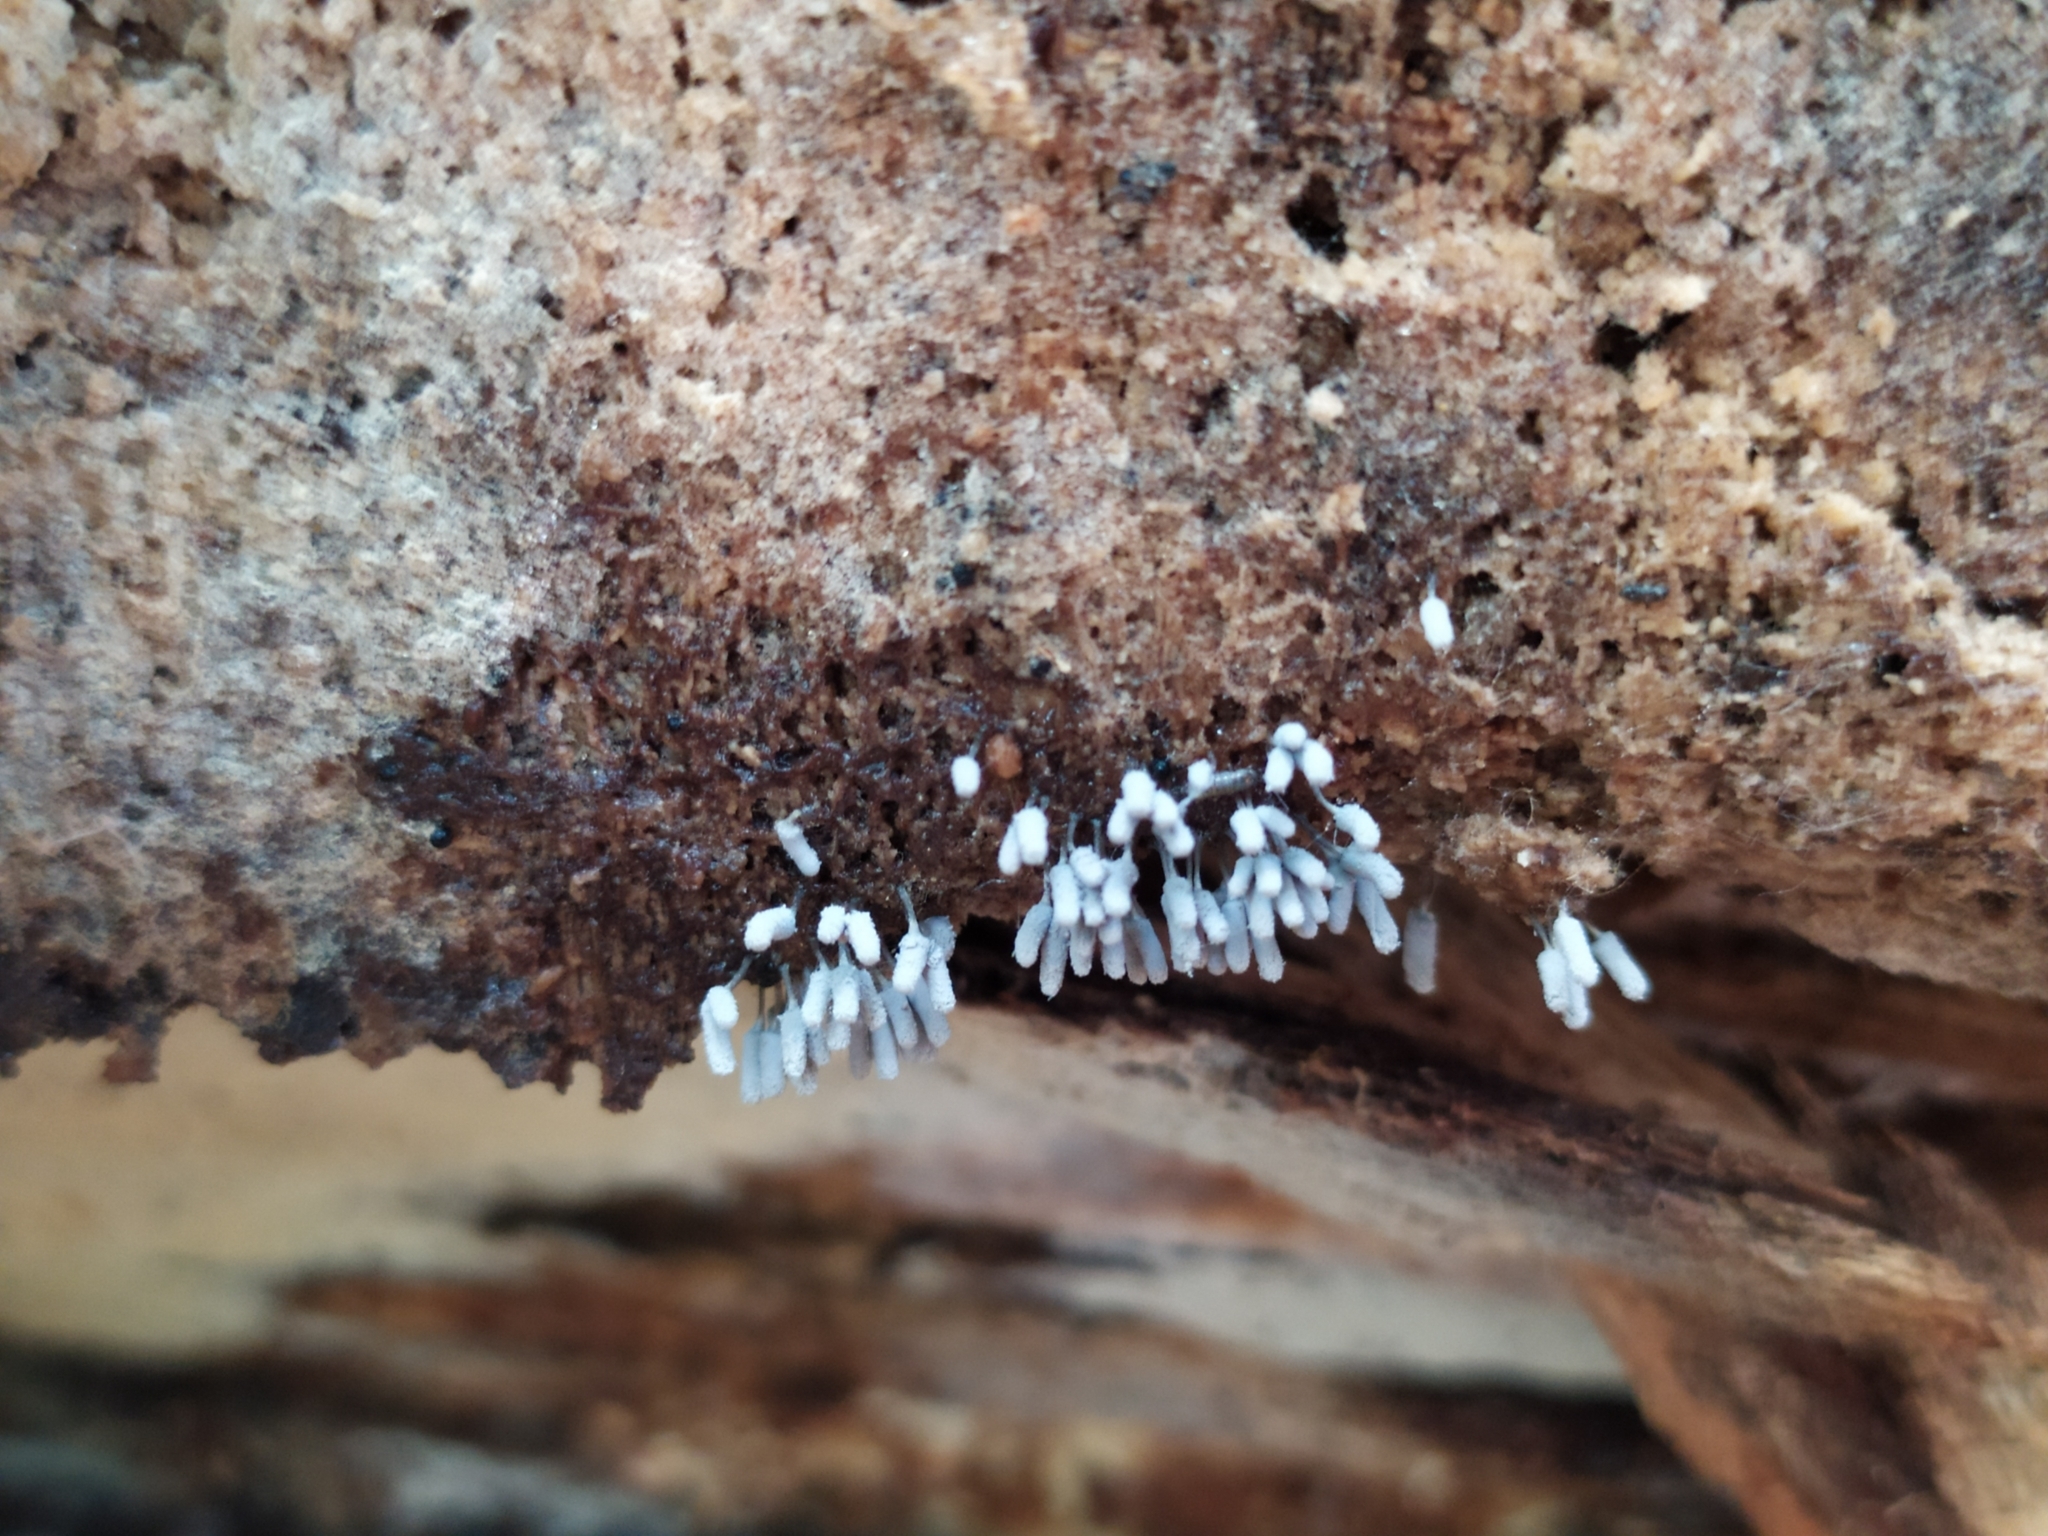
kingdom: Protozoa
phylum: Mycetozoa
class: Myxomycetes
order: Trichiales
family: Arcyriaceae
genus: Arcyria
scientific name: Arcyria cinerea
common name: White carnival candy slime mold
